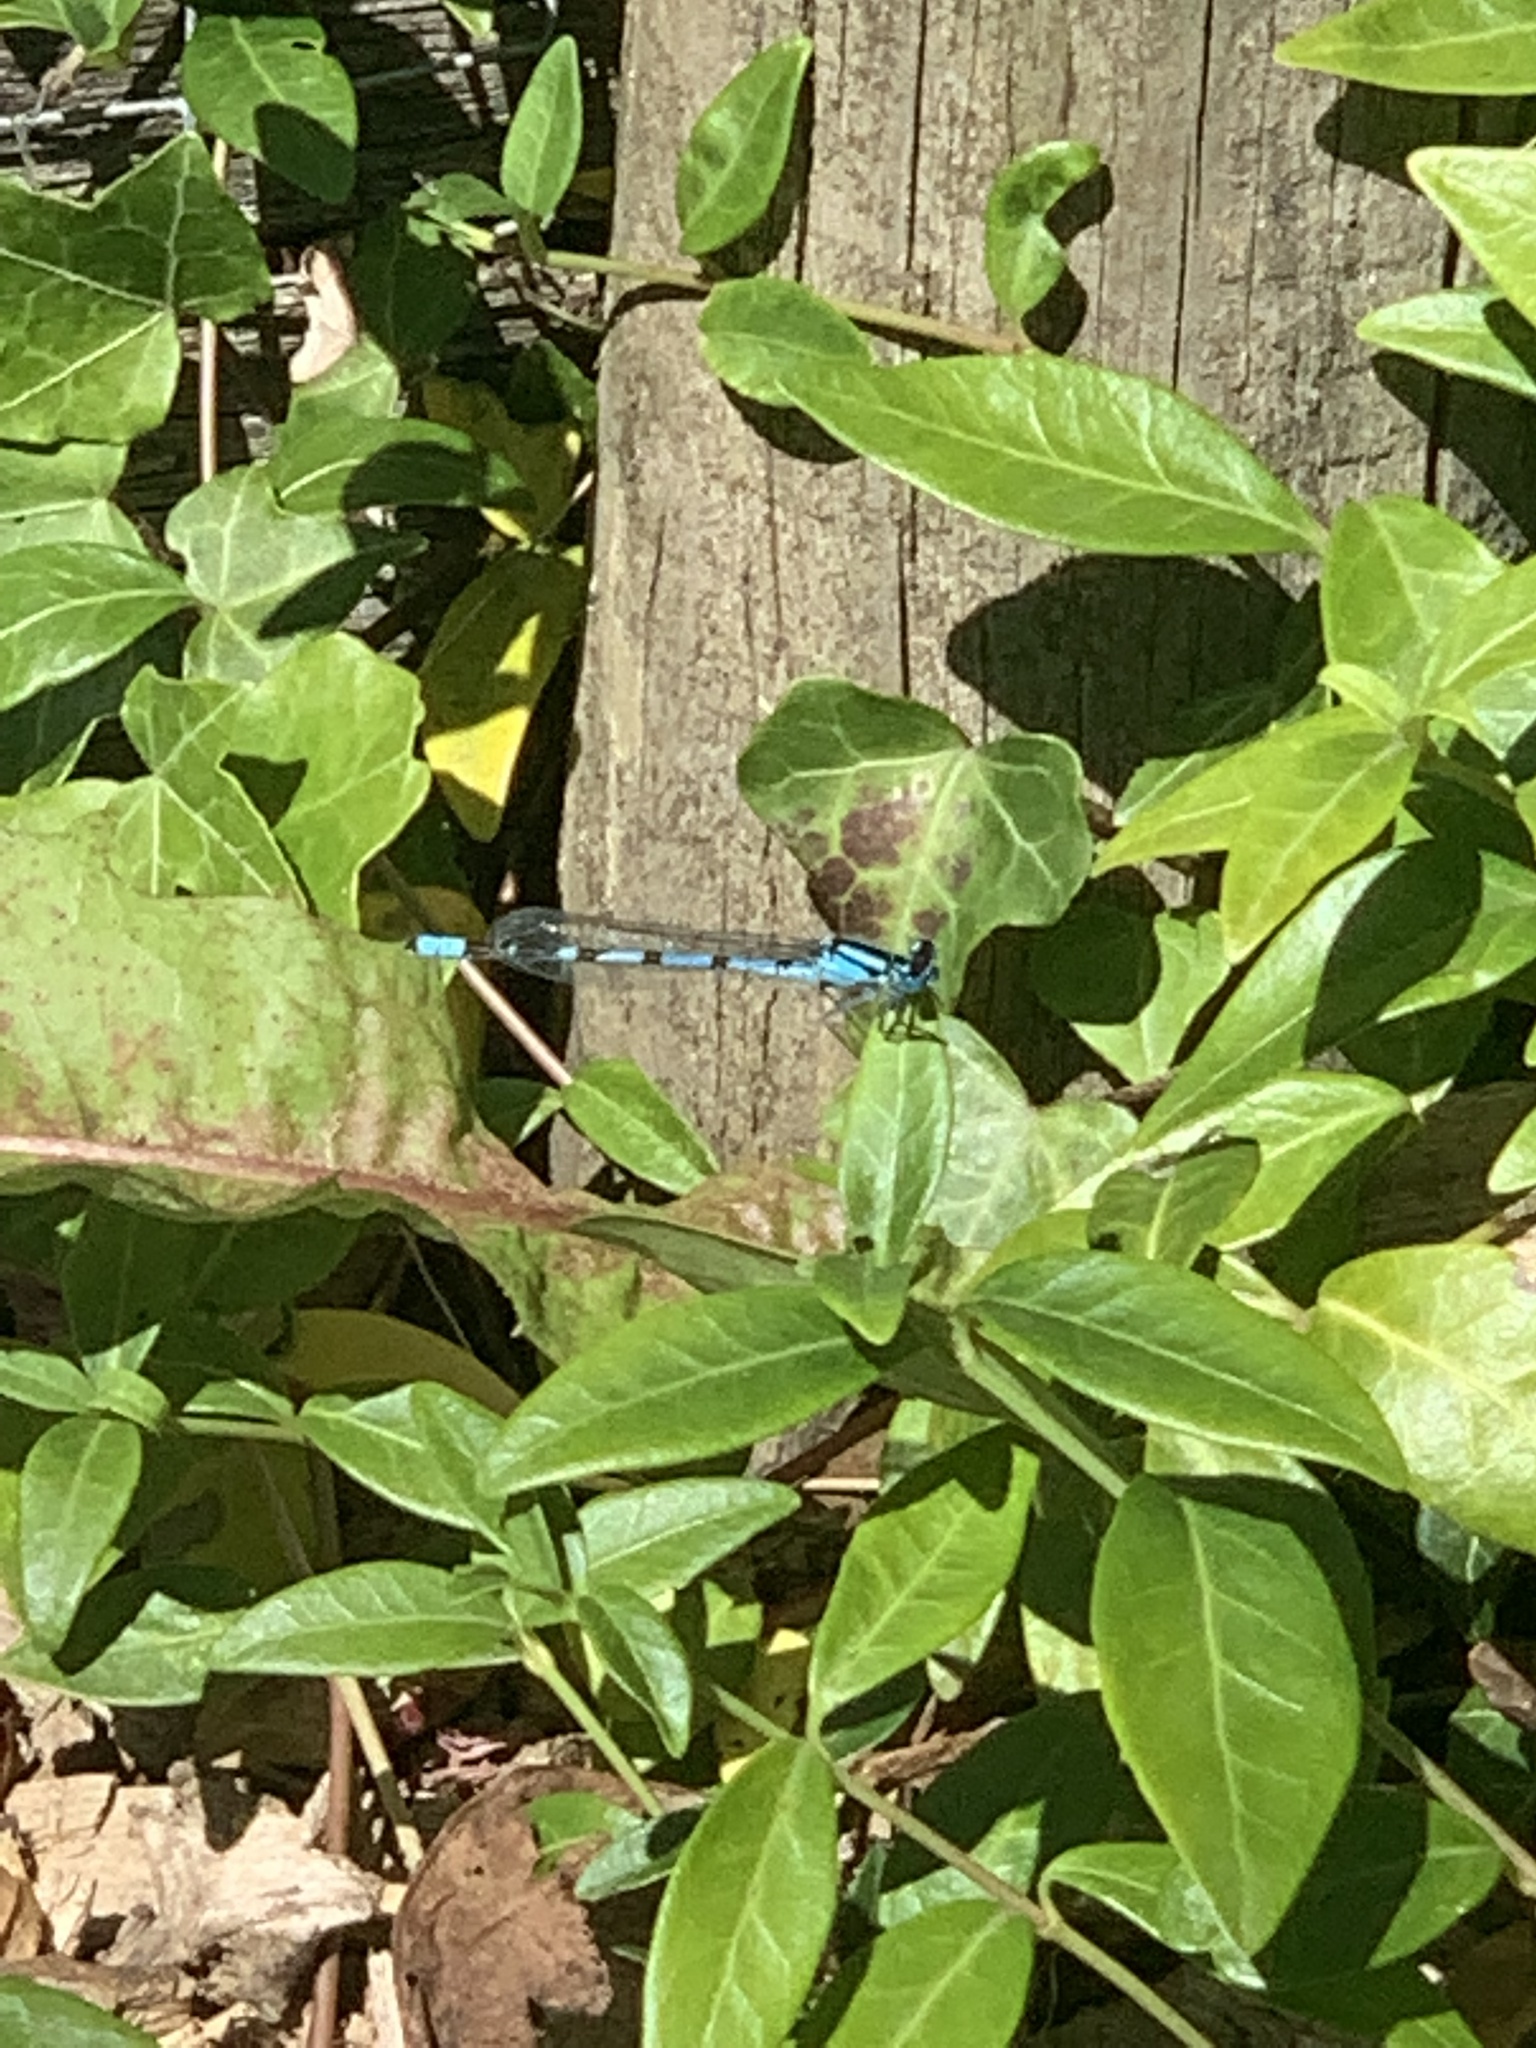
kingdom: Animalia
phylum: Arthropoda
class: Insecta
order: Odonata
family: Coenagrionidae
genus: Enallagma
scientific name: Enallagma cyathigerum
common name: Common blue damselfly
